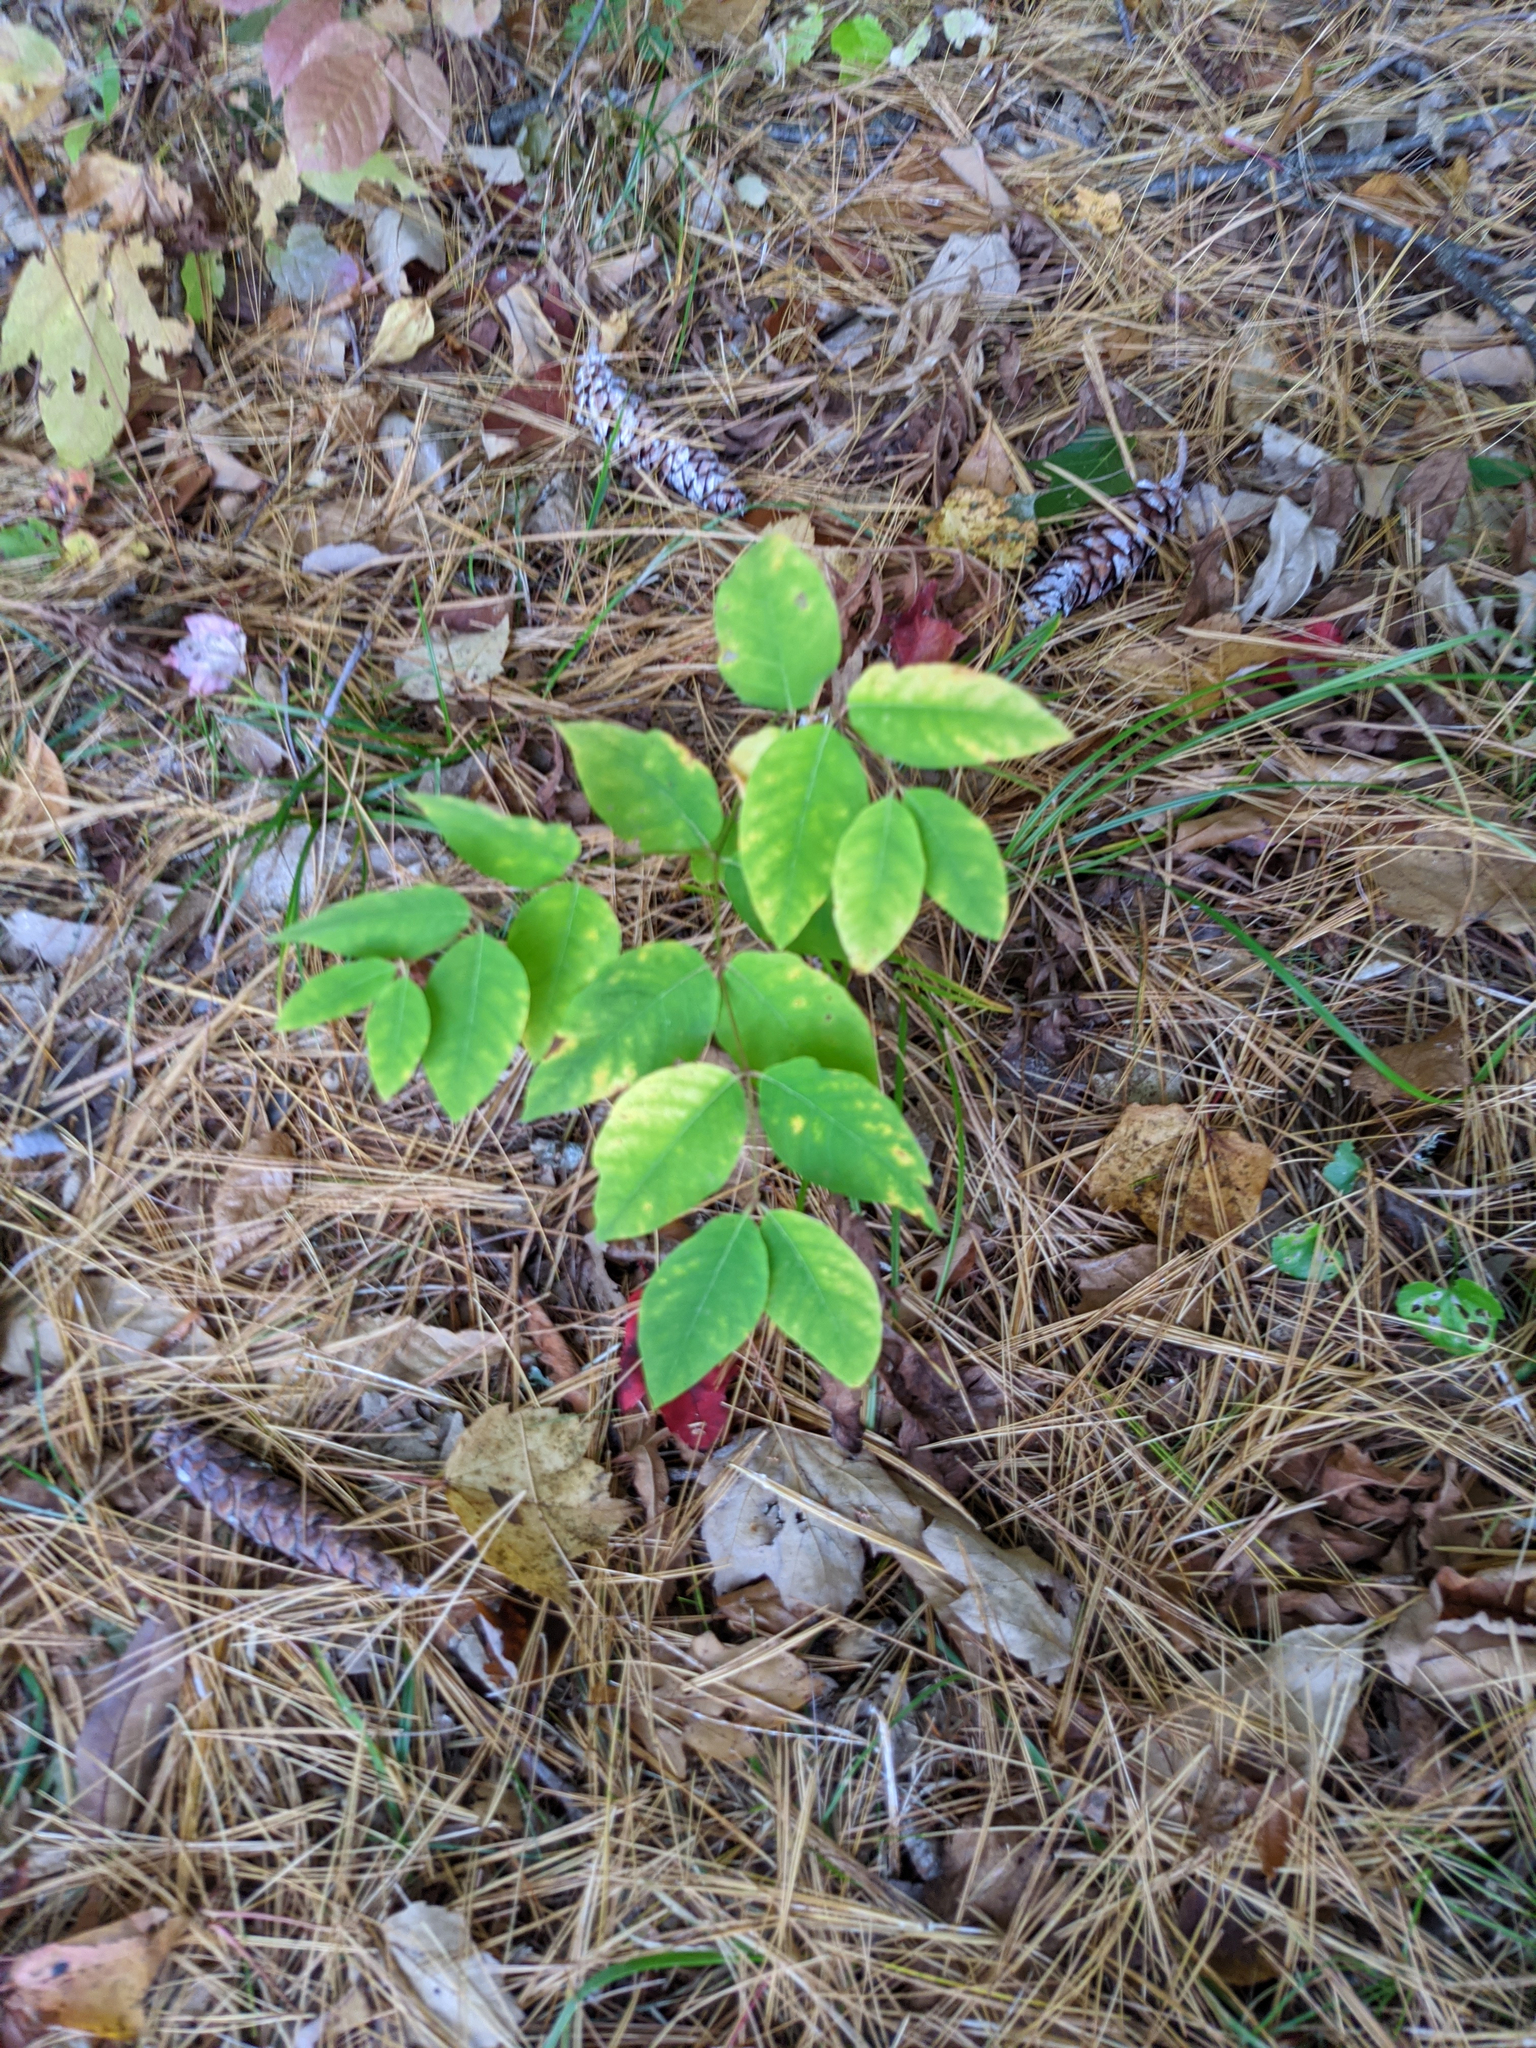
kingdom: Plantae
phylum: Tracheophyta
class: Magnoliopsida
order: Gentianales
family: Apocynaceae
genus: Apocynum
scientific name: Apocynum androsaemifolium
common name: Spreading dogbane
